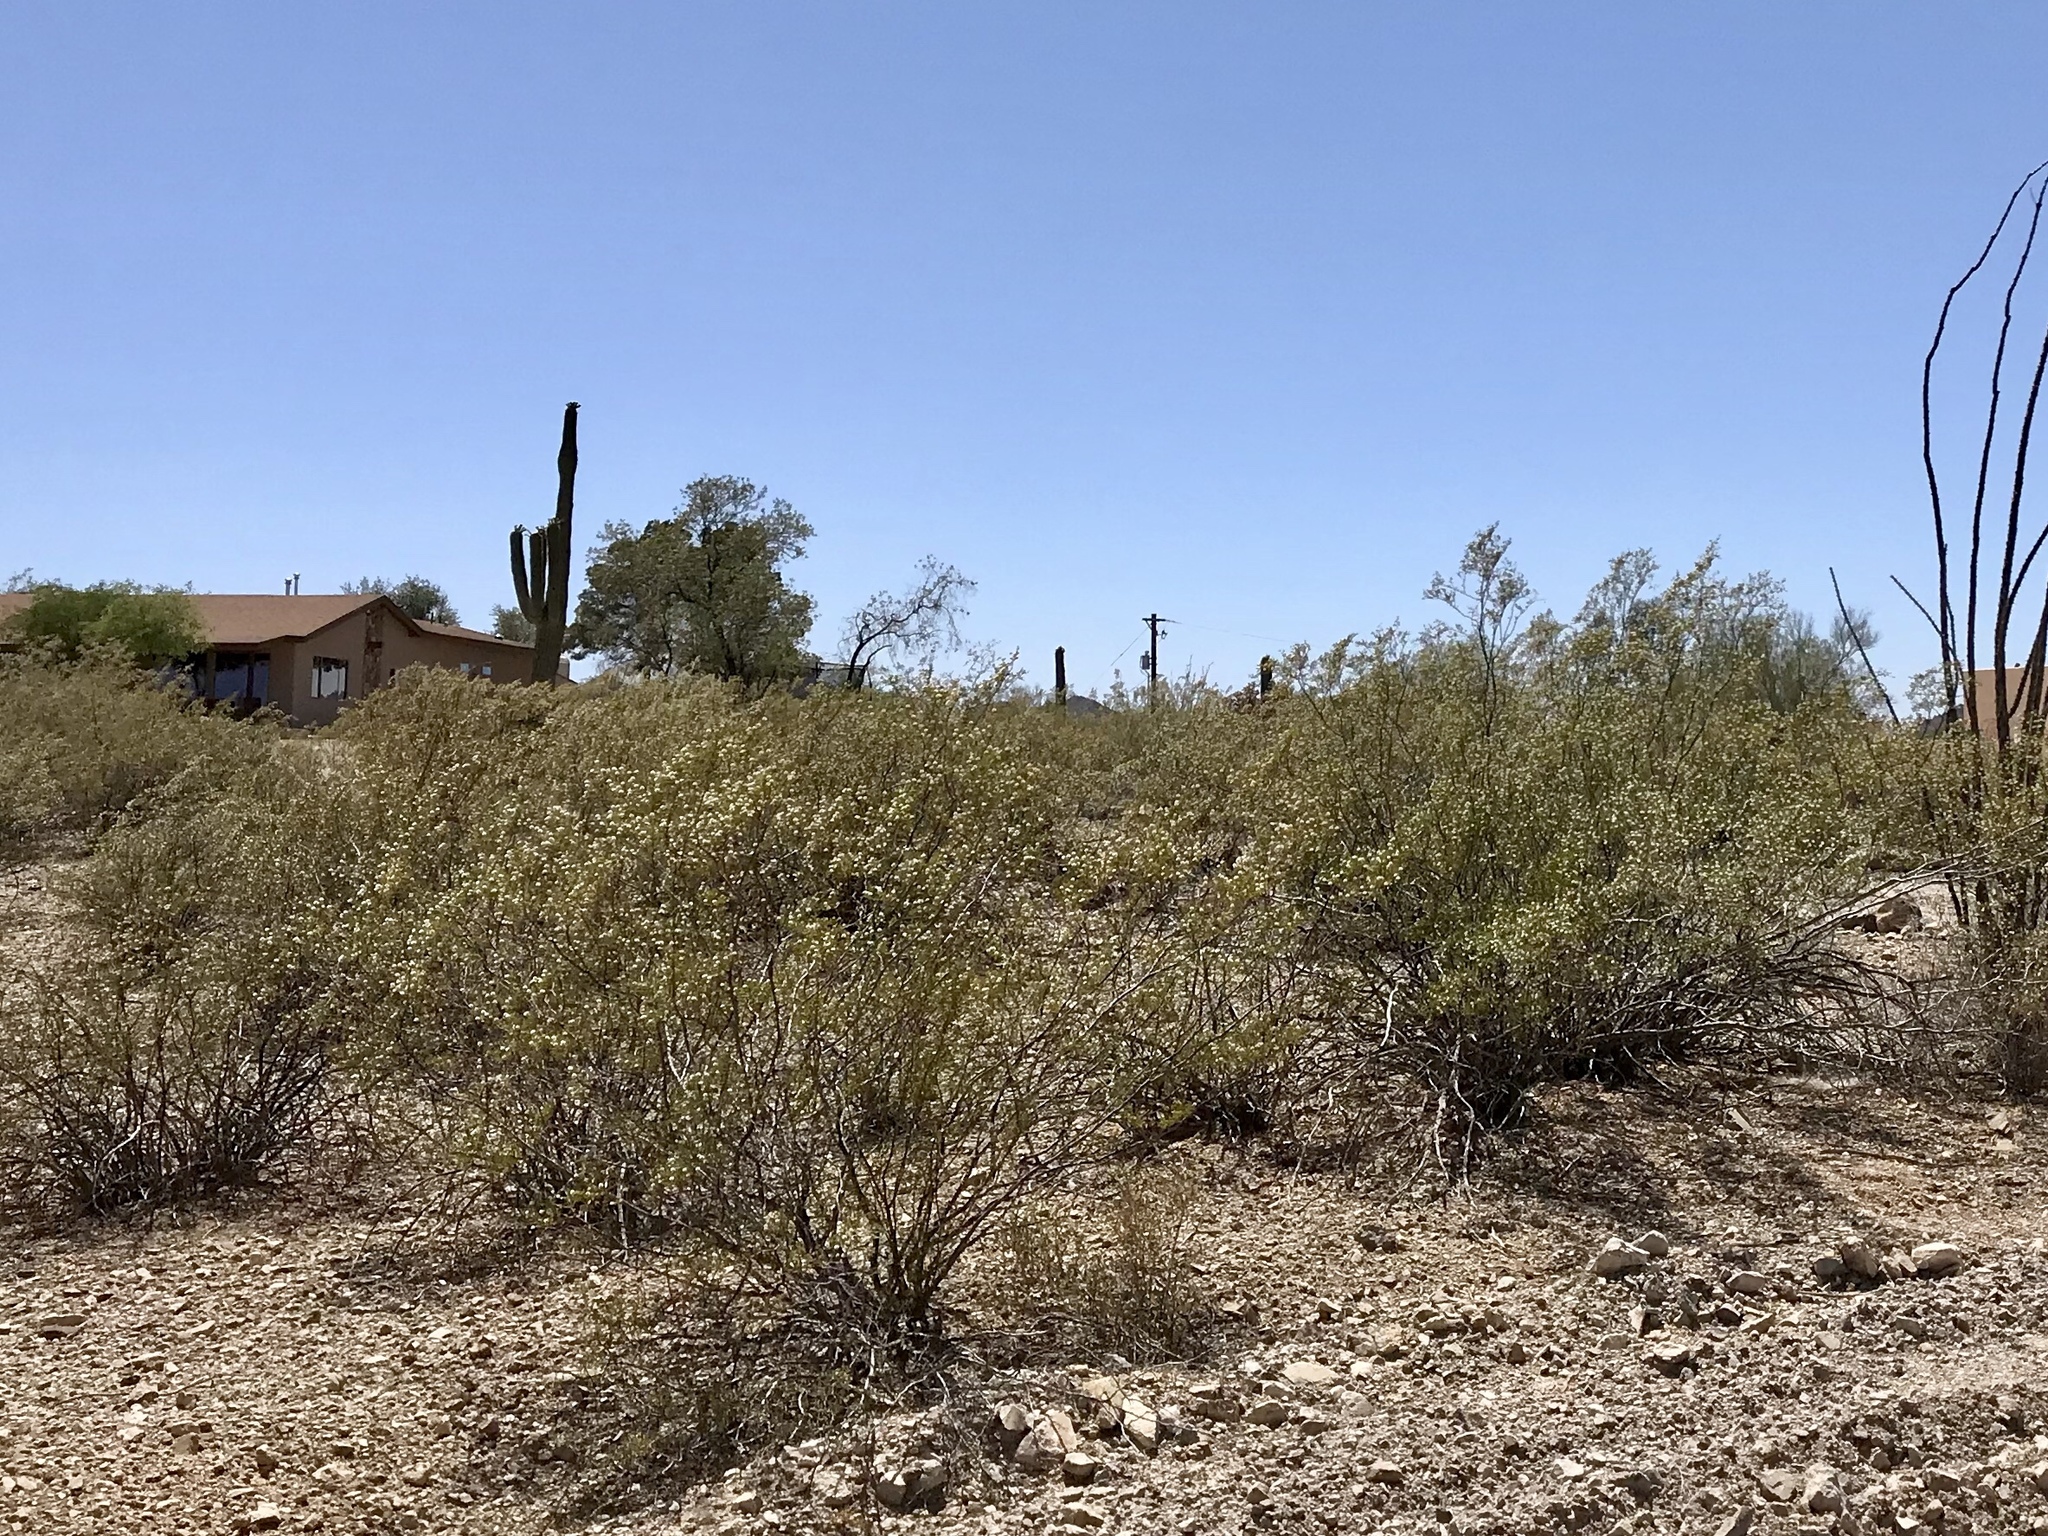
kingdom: Plantae
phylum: Tracheophyta
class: Magnoliopsida
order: Zygophyllales
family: Zygophyllaceae
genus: Larrea
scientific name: Larrea tridentata
